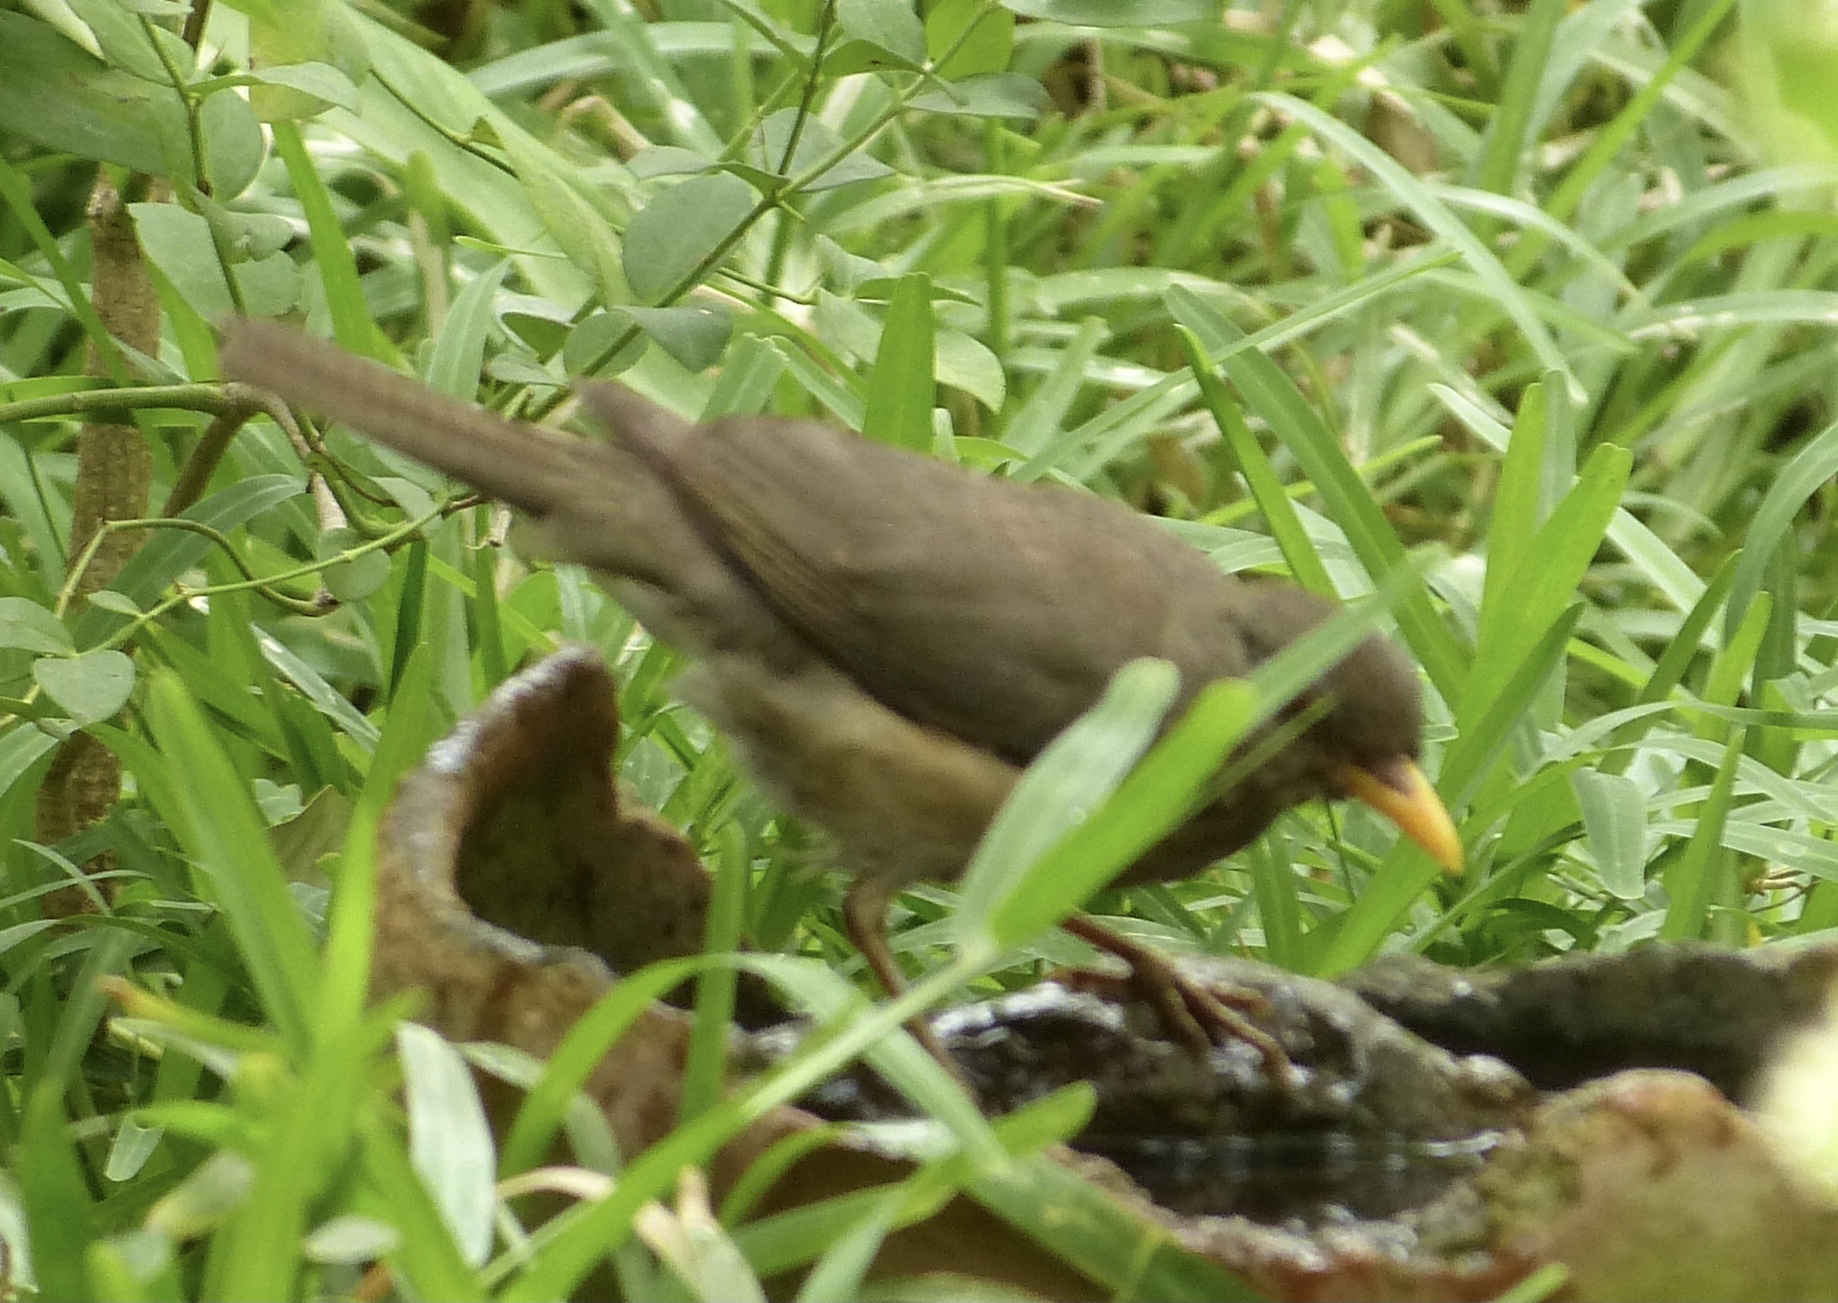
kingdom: Animalia
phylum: Chordata
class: Aves
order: Passeriformes
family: Turdidae
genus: Turdus
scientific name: Turdus pelios
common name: African thrush
